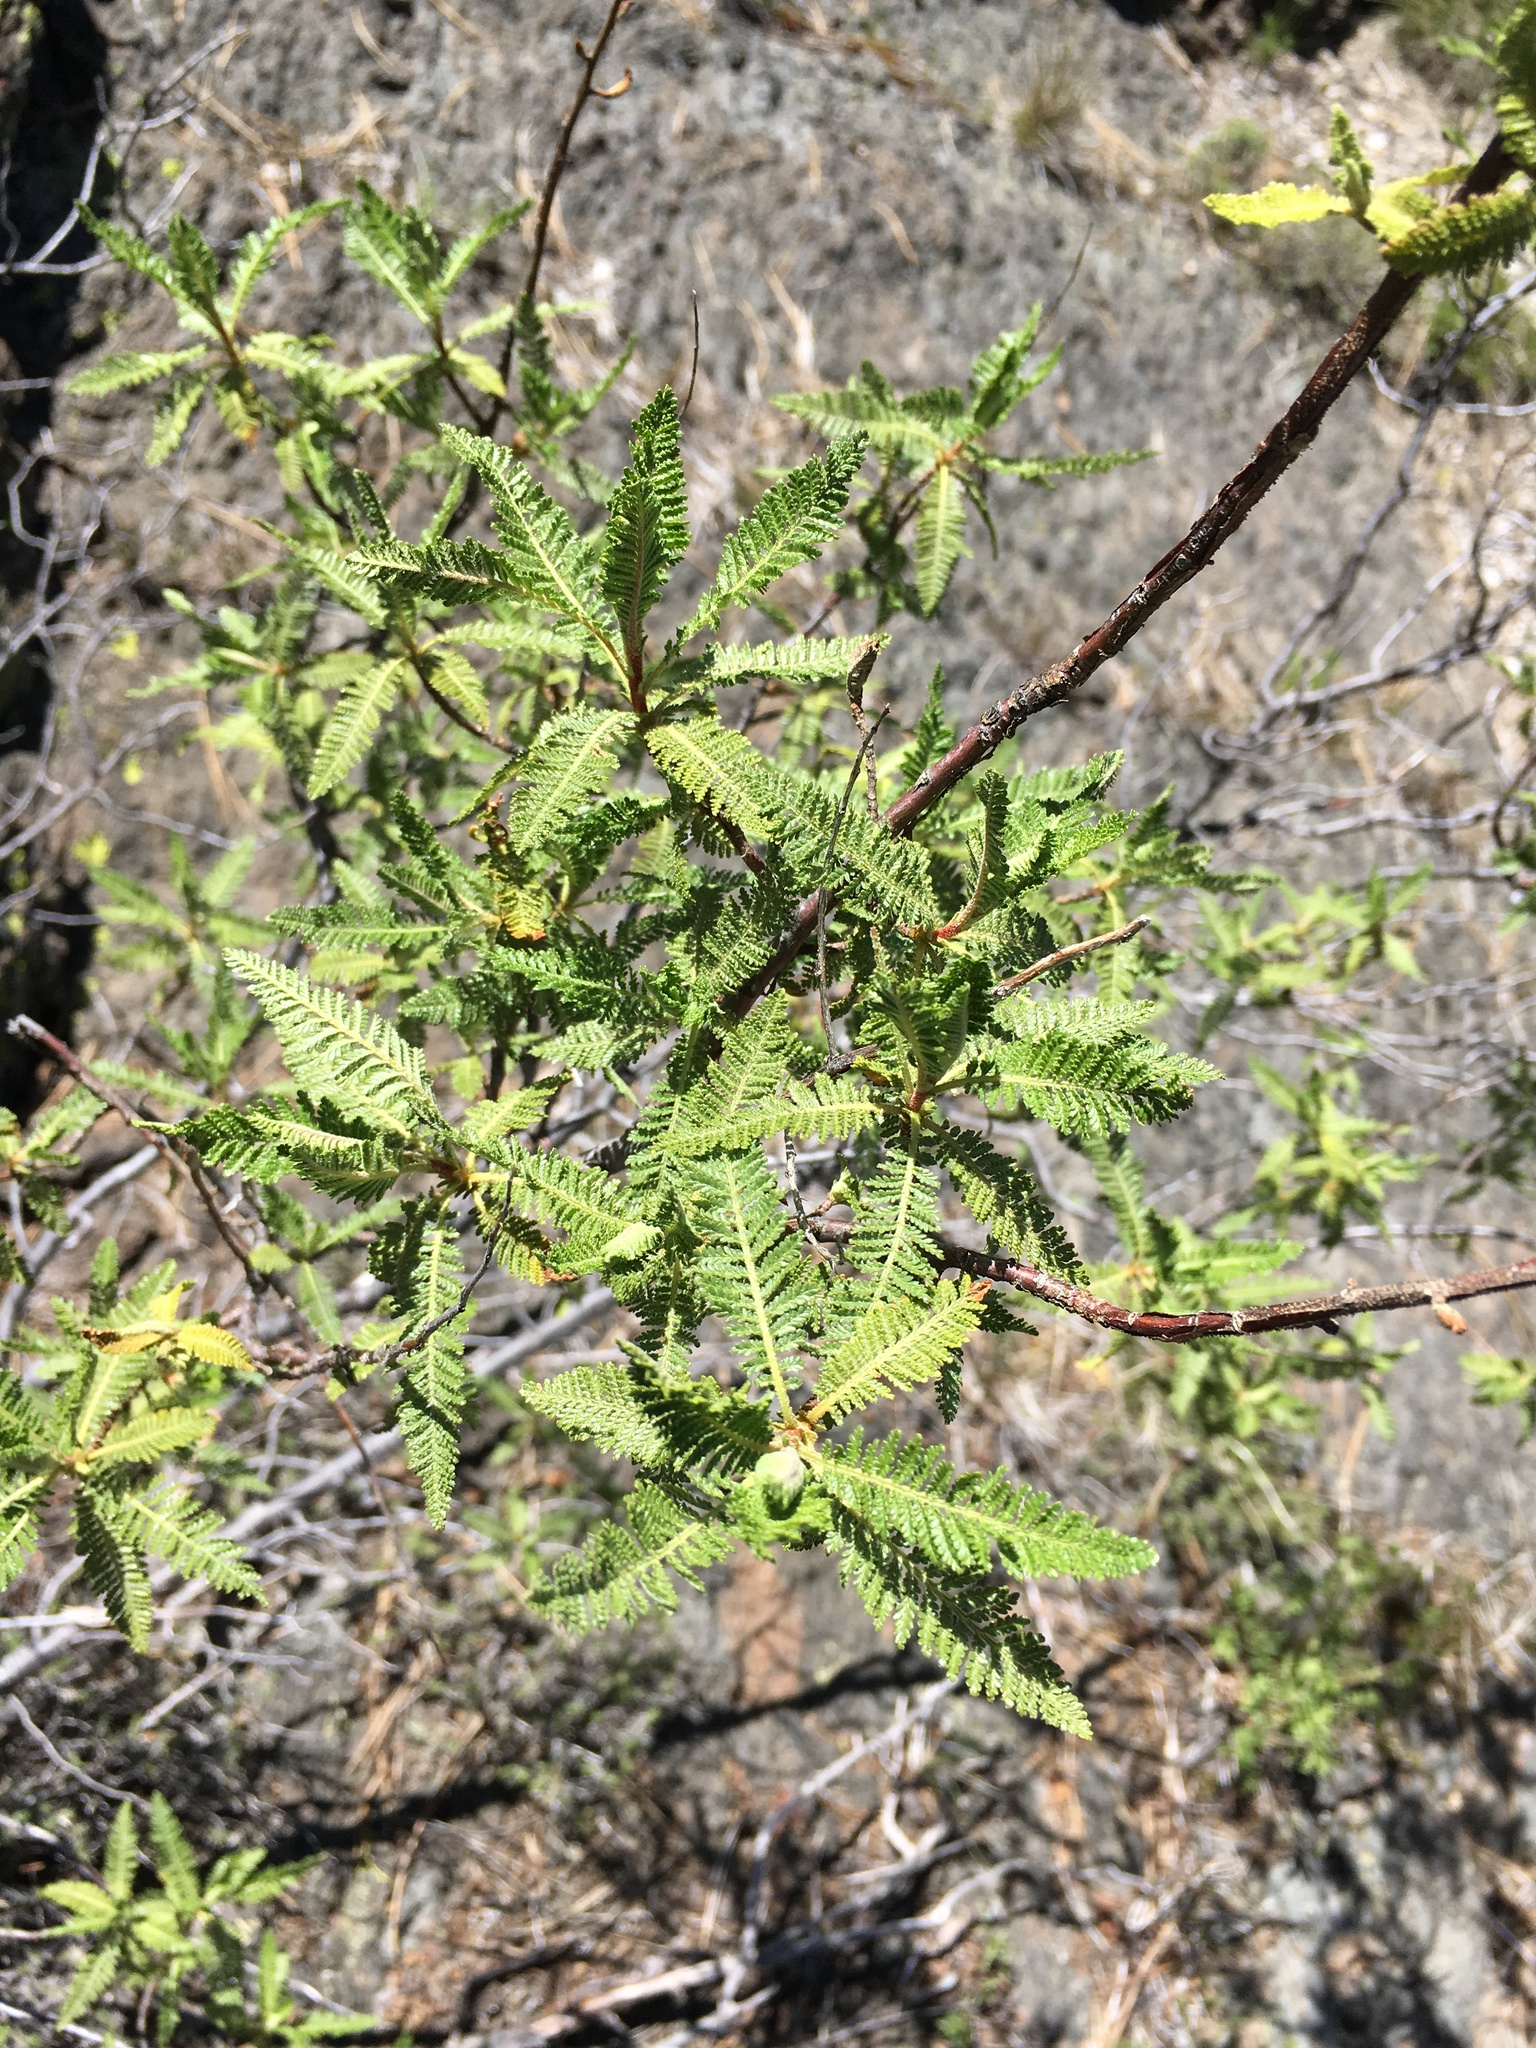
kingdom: Plantae
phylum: Tracheophyta
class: Magnoliopsida
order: Rosales
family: Rosaceae
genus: Chamaebatiaria
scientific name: Chamaebatiaria millefolium
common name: Fernbush
